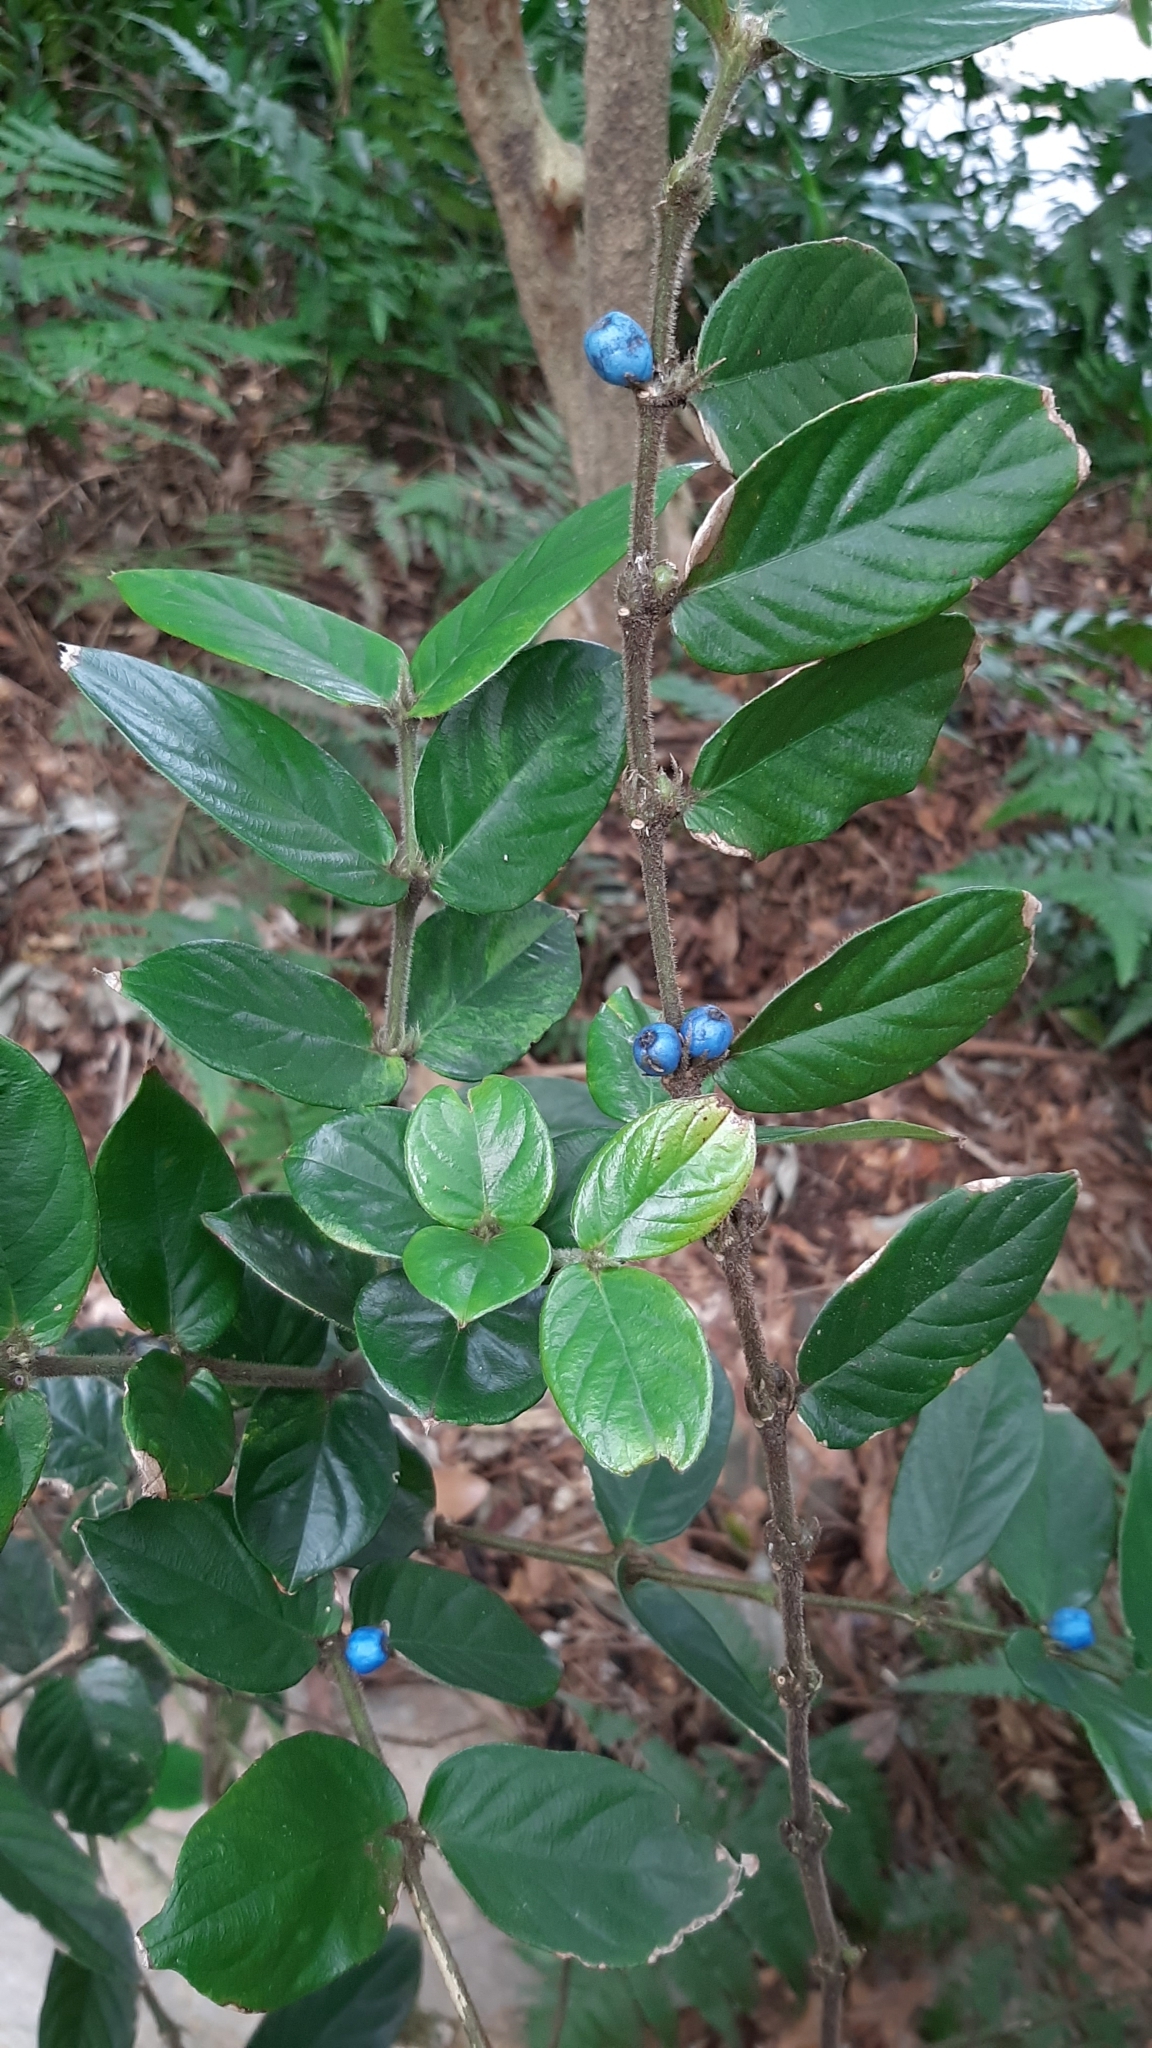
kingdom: Plantae
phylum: Tracheophyta
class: Magnoliopsida
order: Gentianales
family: Rubiaceae
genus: Lasianthus
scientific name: Lasianthus attenuatus
